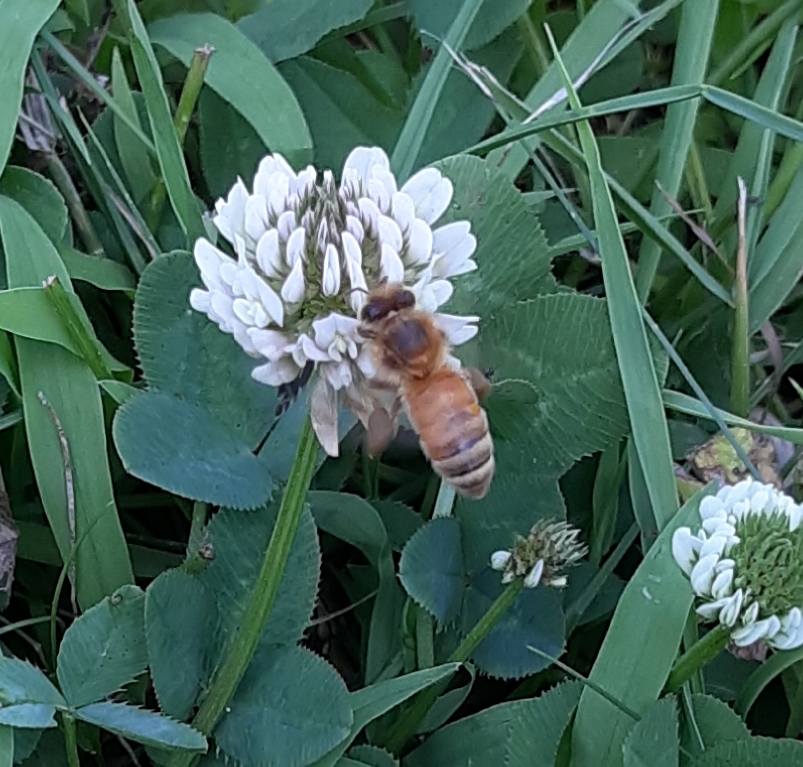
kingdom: Animalia
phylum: Arthropoda
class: Insecta
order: Hymenoptera
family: Apidae
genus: Apis
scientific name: Apis mellifera
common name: Honey bee
